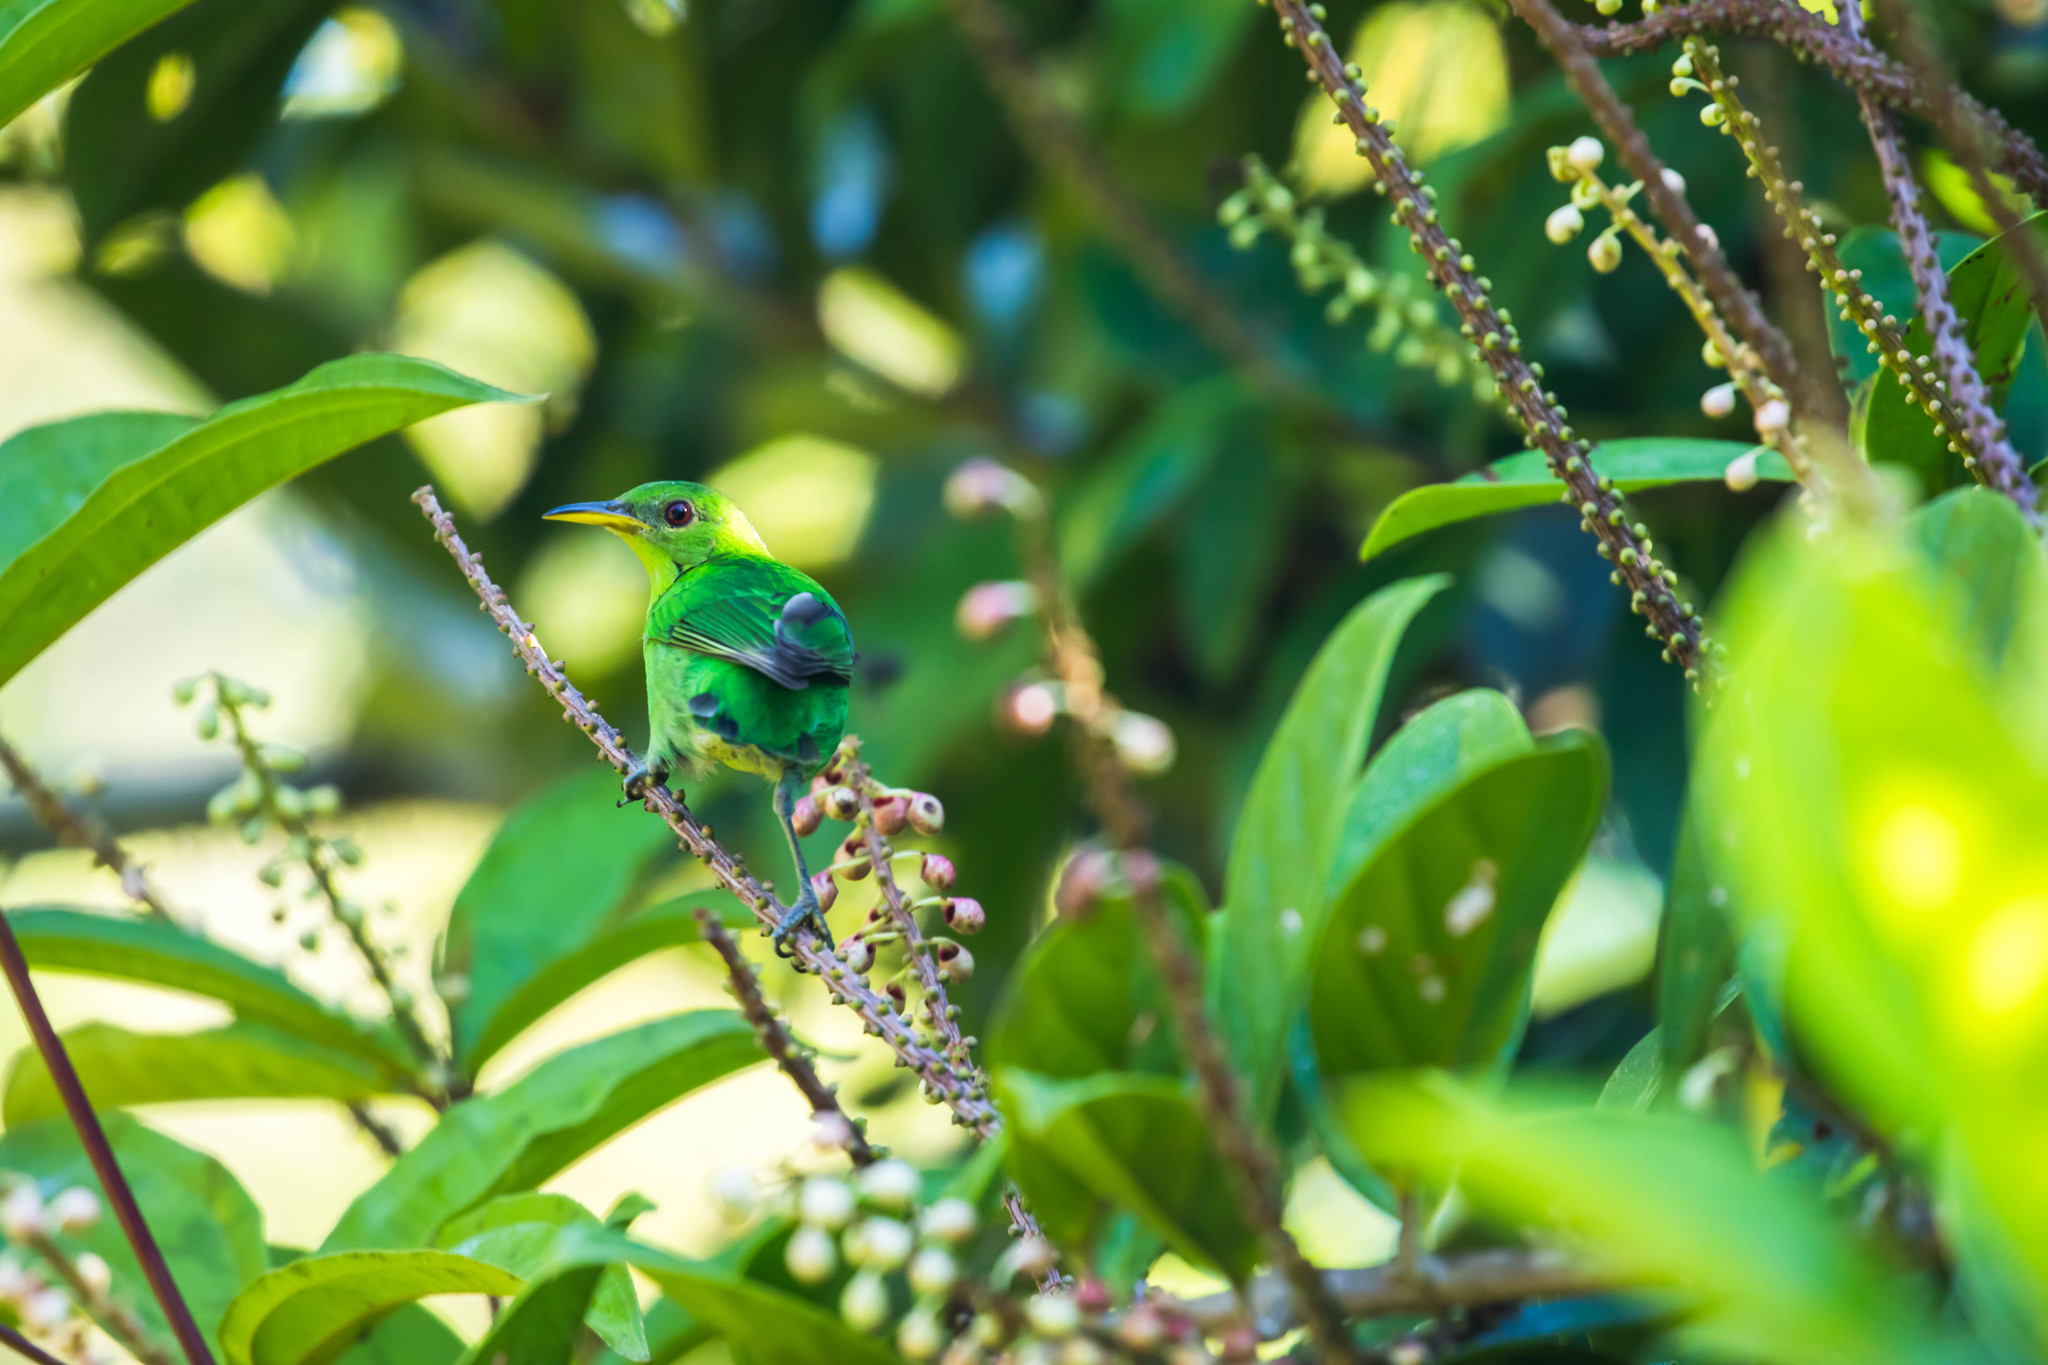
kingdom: Animalia
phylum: Chordata
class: Aves
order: Passeriformes
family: Thraupidae
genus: Chlorophanes
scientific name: Chlorophanes spiza
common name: Green honeycreeper
